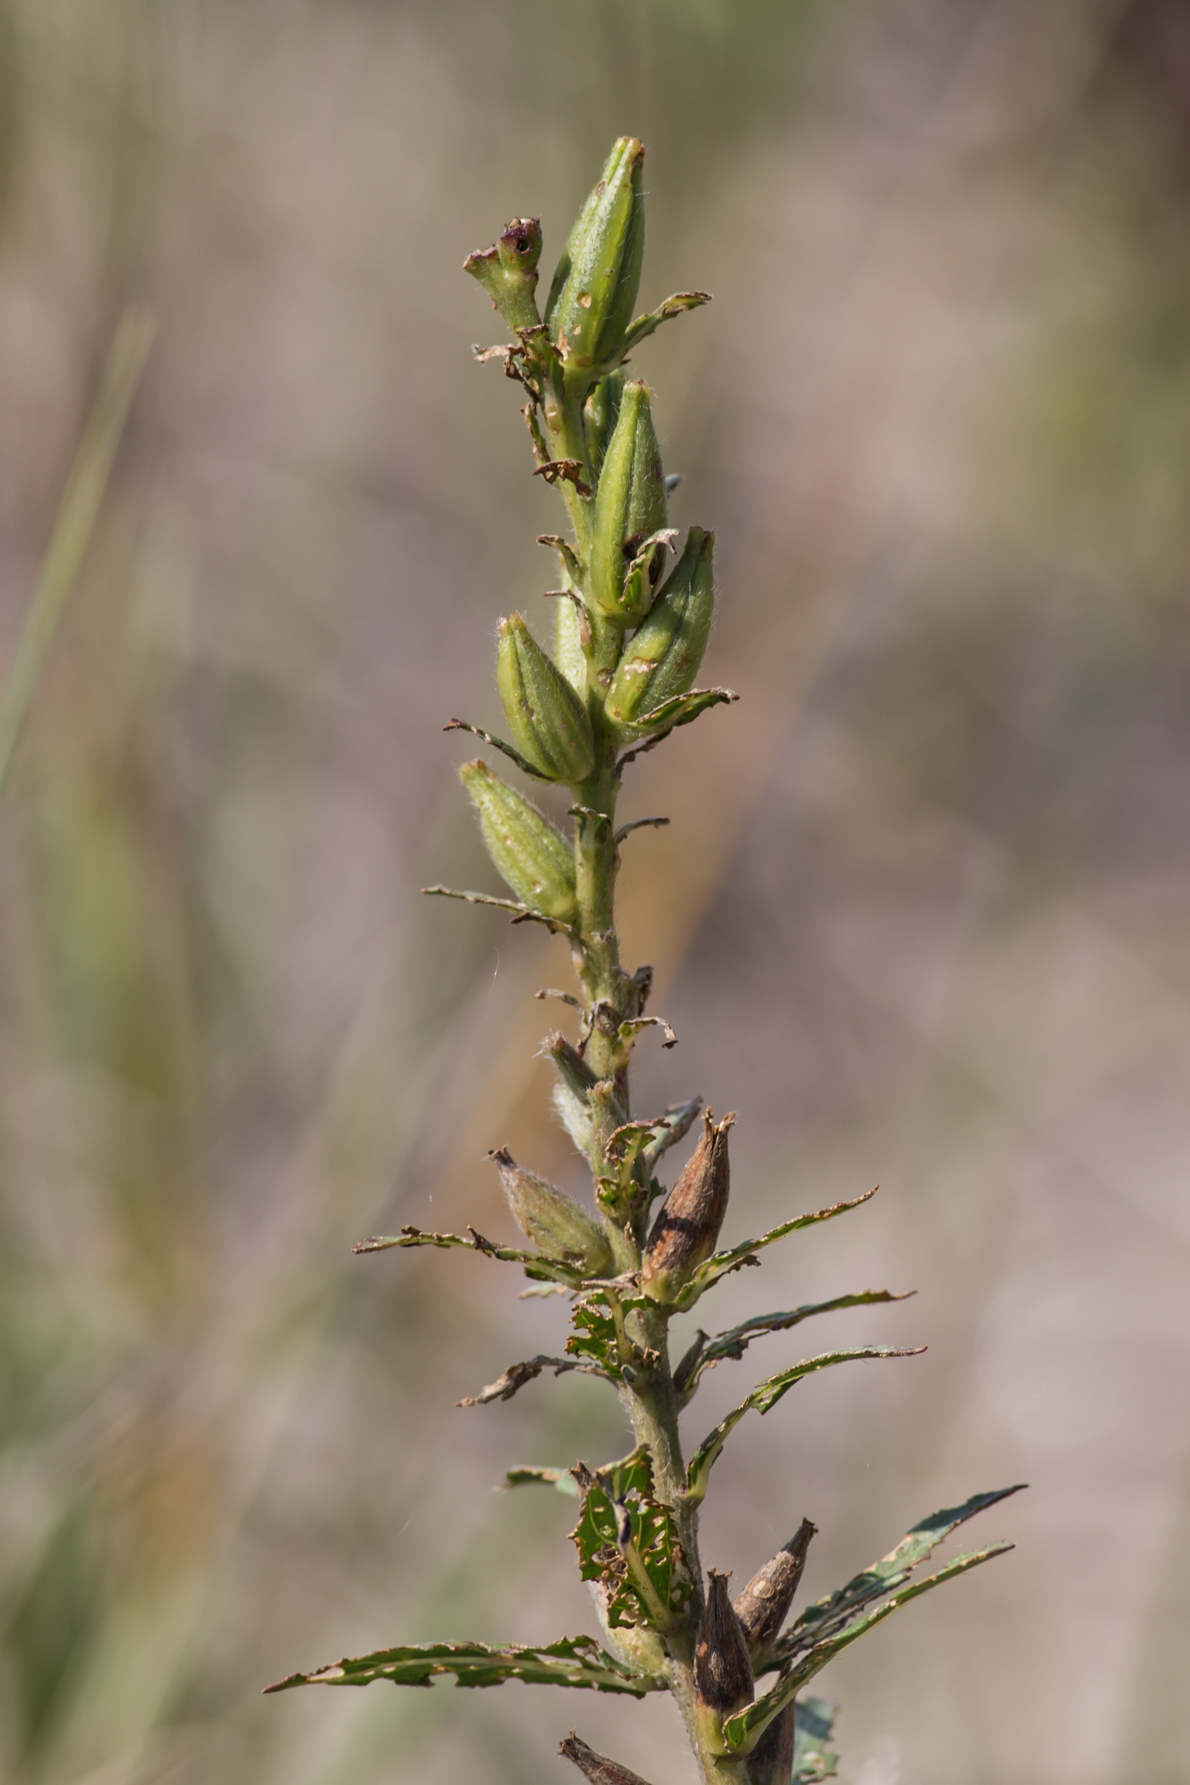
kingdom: Plantae
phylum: Tracheophyta
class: Magnoliopsida
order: Myrtales
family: Onagraceae
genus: Oenothera
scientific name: Oenothera biennis
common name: Common evening-primrose
